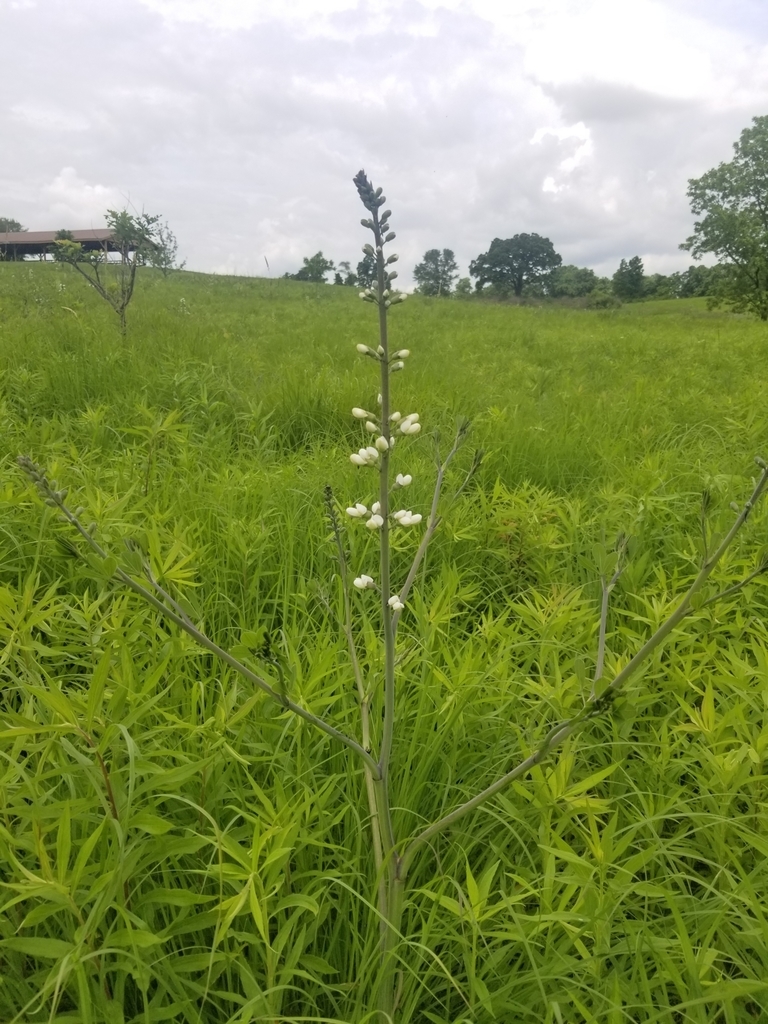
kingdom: Plantae
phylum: Tracheophyta
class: Magnoliopsida
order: Fabales
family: Fabaceae
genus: Baptisia
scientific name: Baptisia alba
